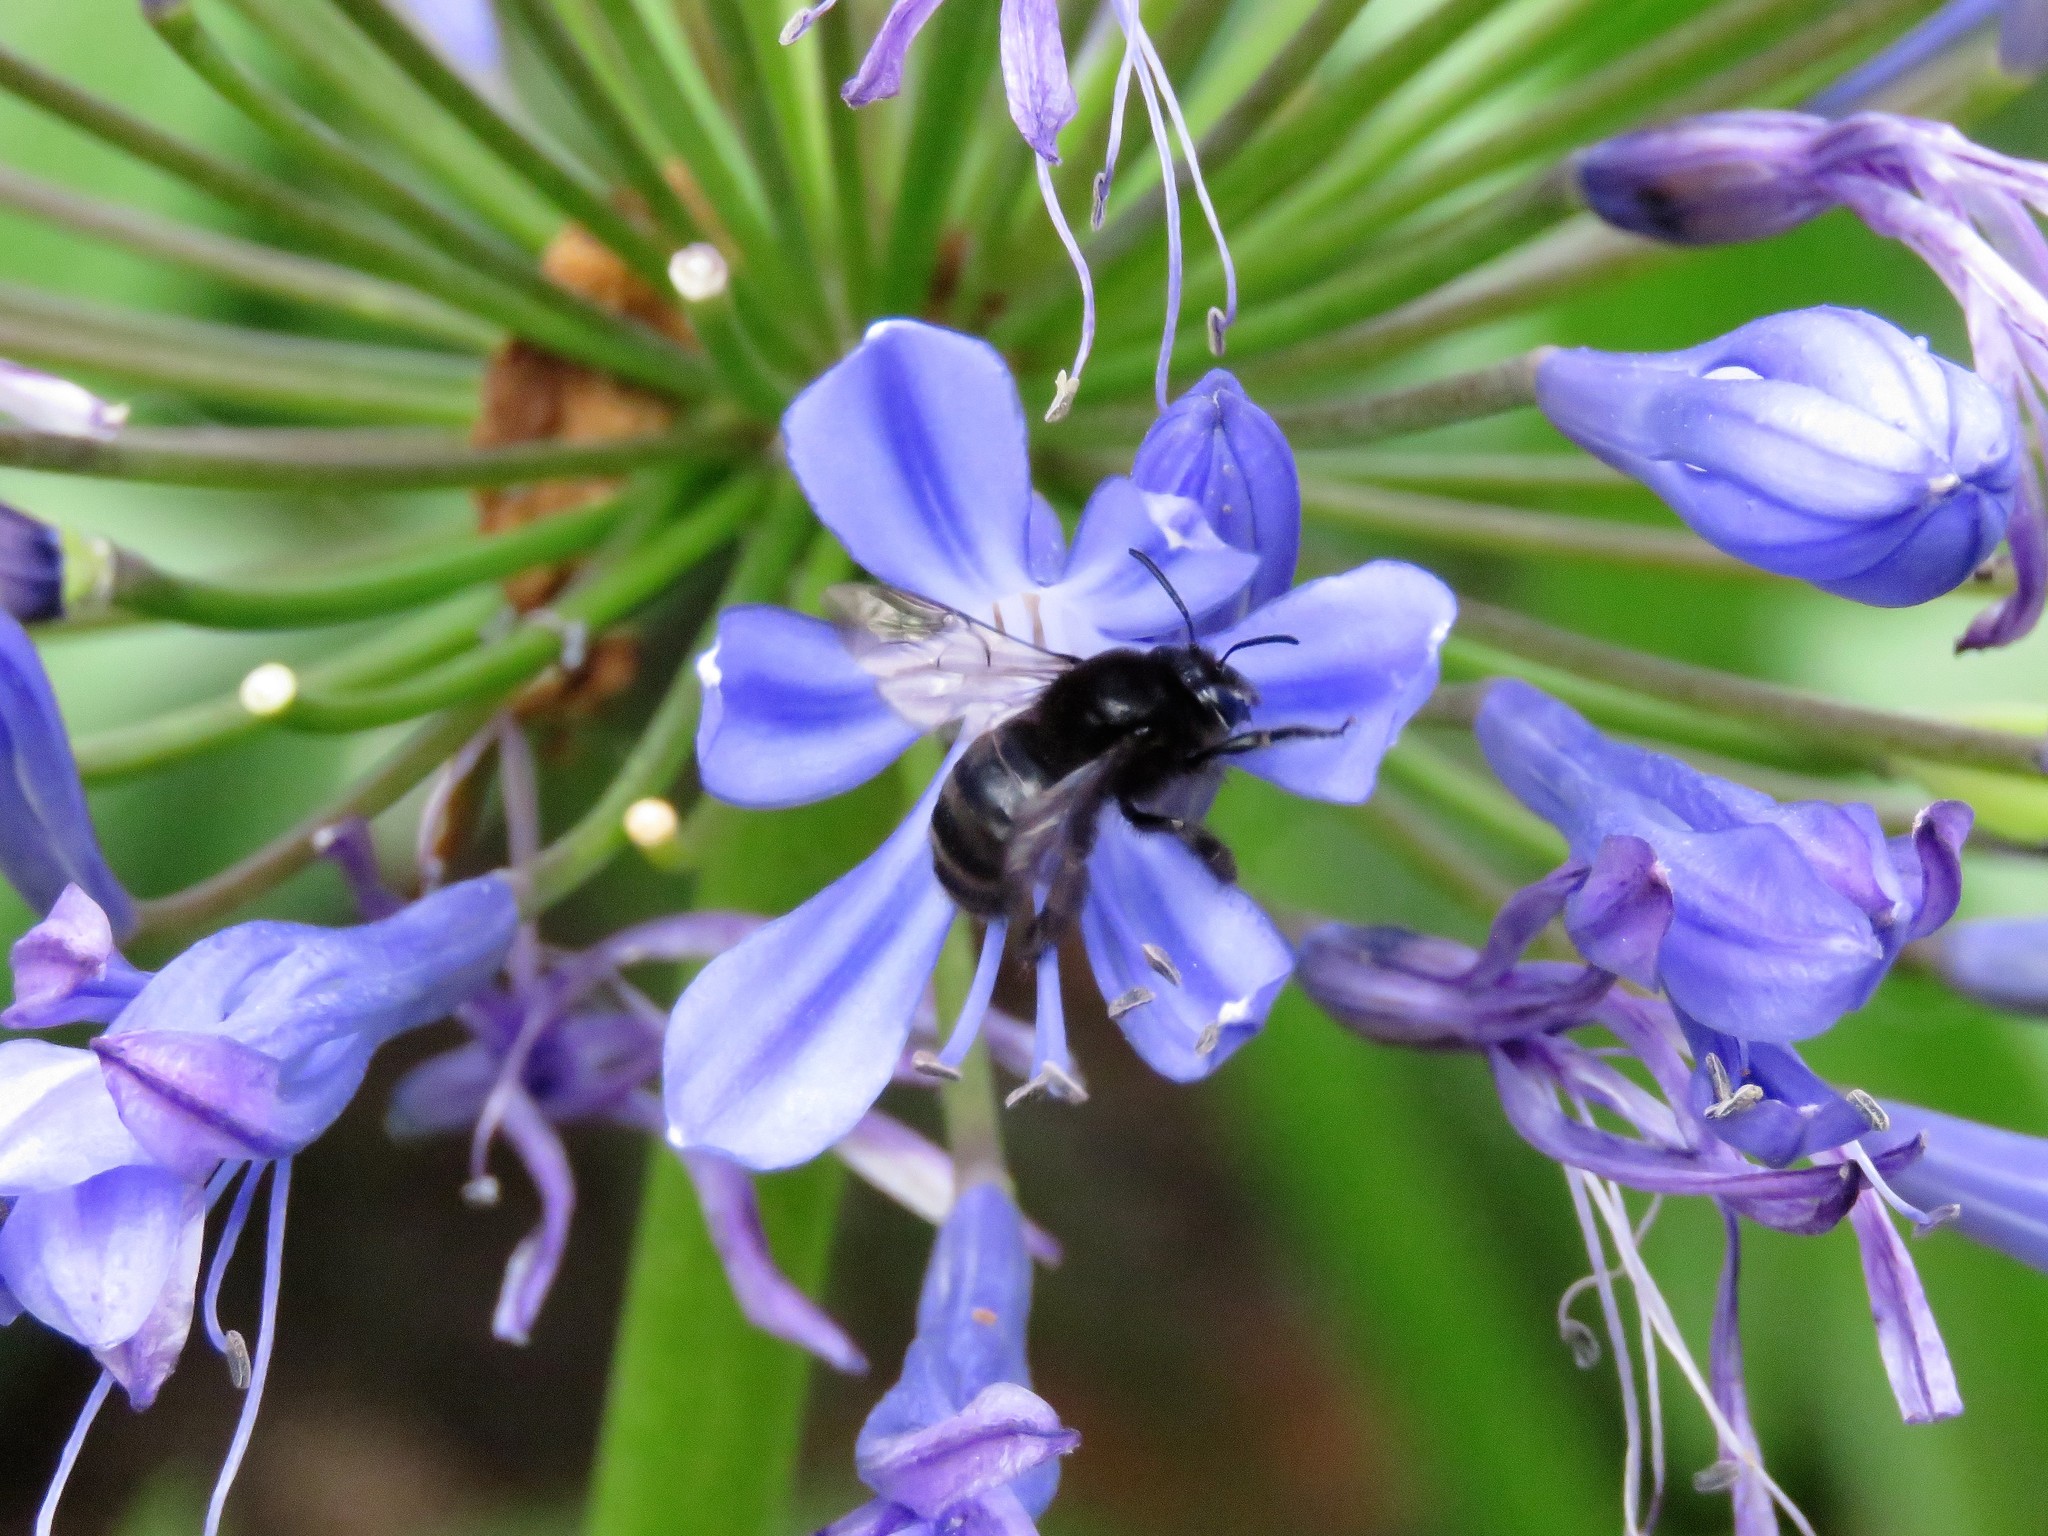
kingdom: Animalia
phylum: Arthropoda
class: Insecta
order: Hymenoptera
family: Apidae
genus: Thygater
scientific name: Thygater aethiops
